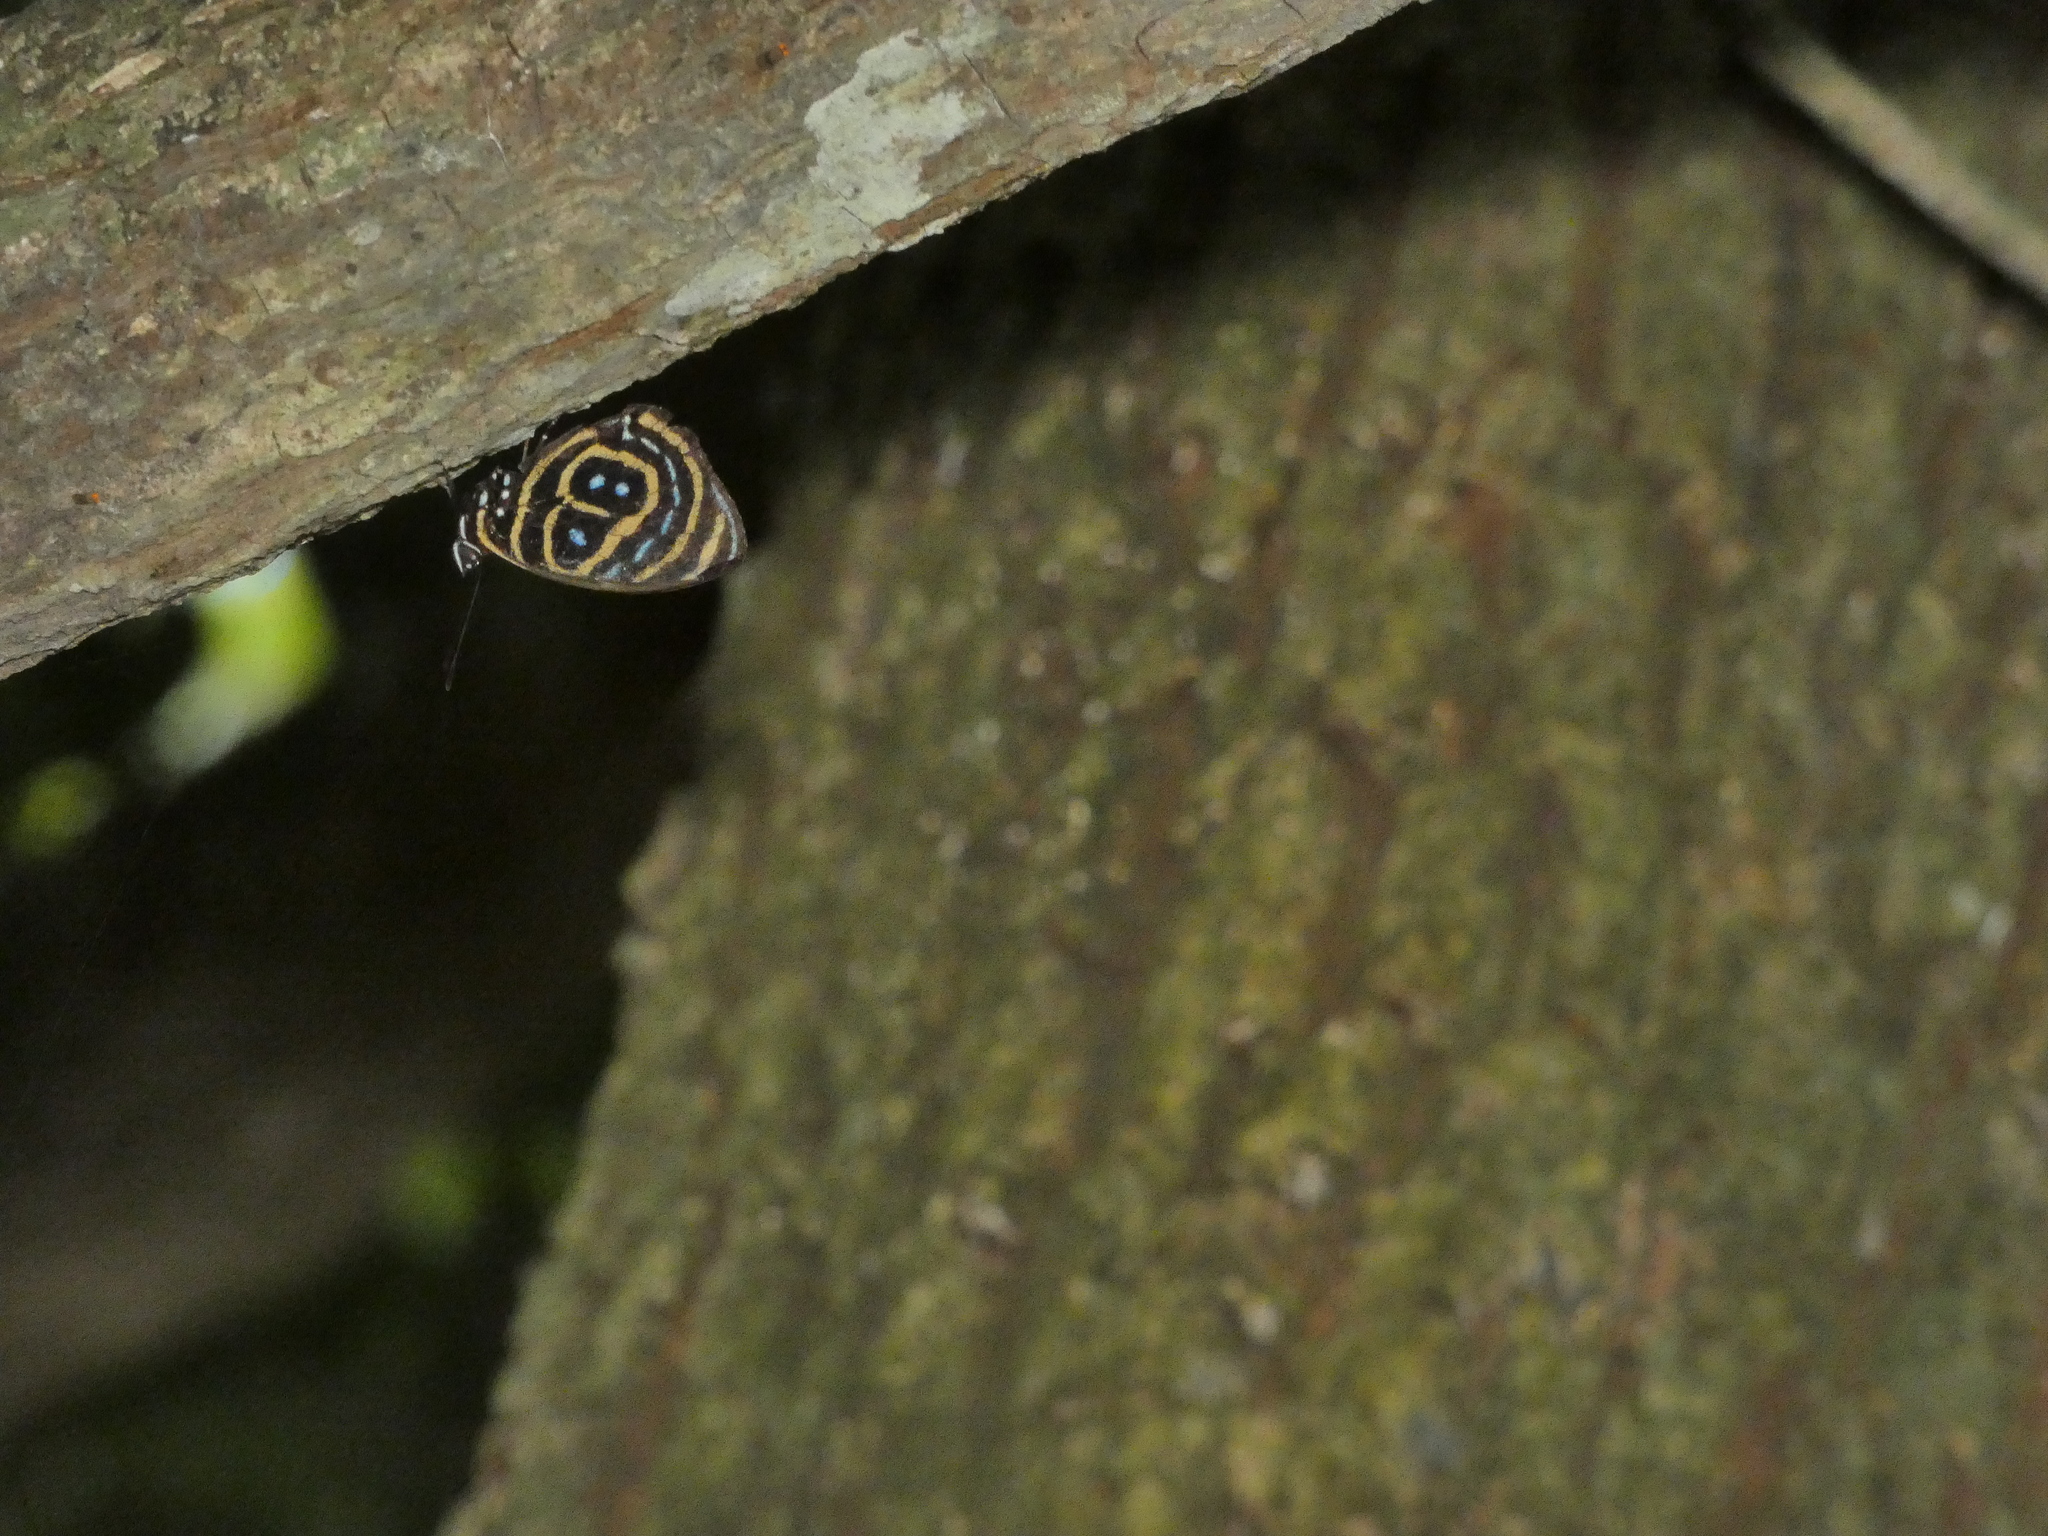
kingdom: Animalia
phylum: Arthropoda
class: Insecta
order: Lepidoptera
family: Nymphalidae
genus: Catagramma
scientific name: Catagramma astarte
